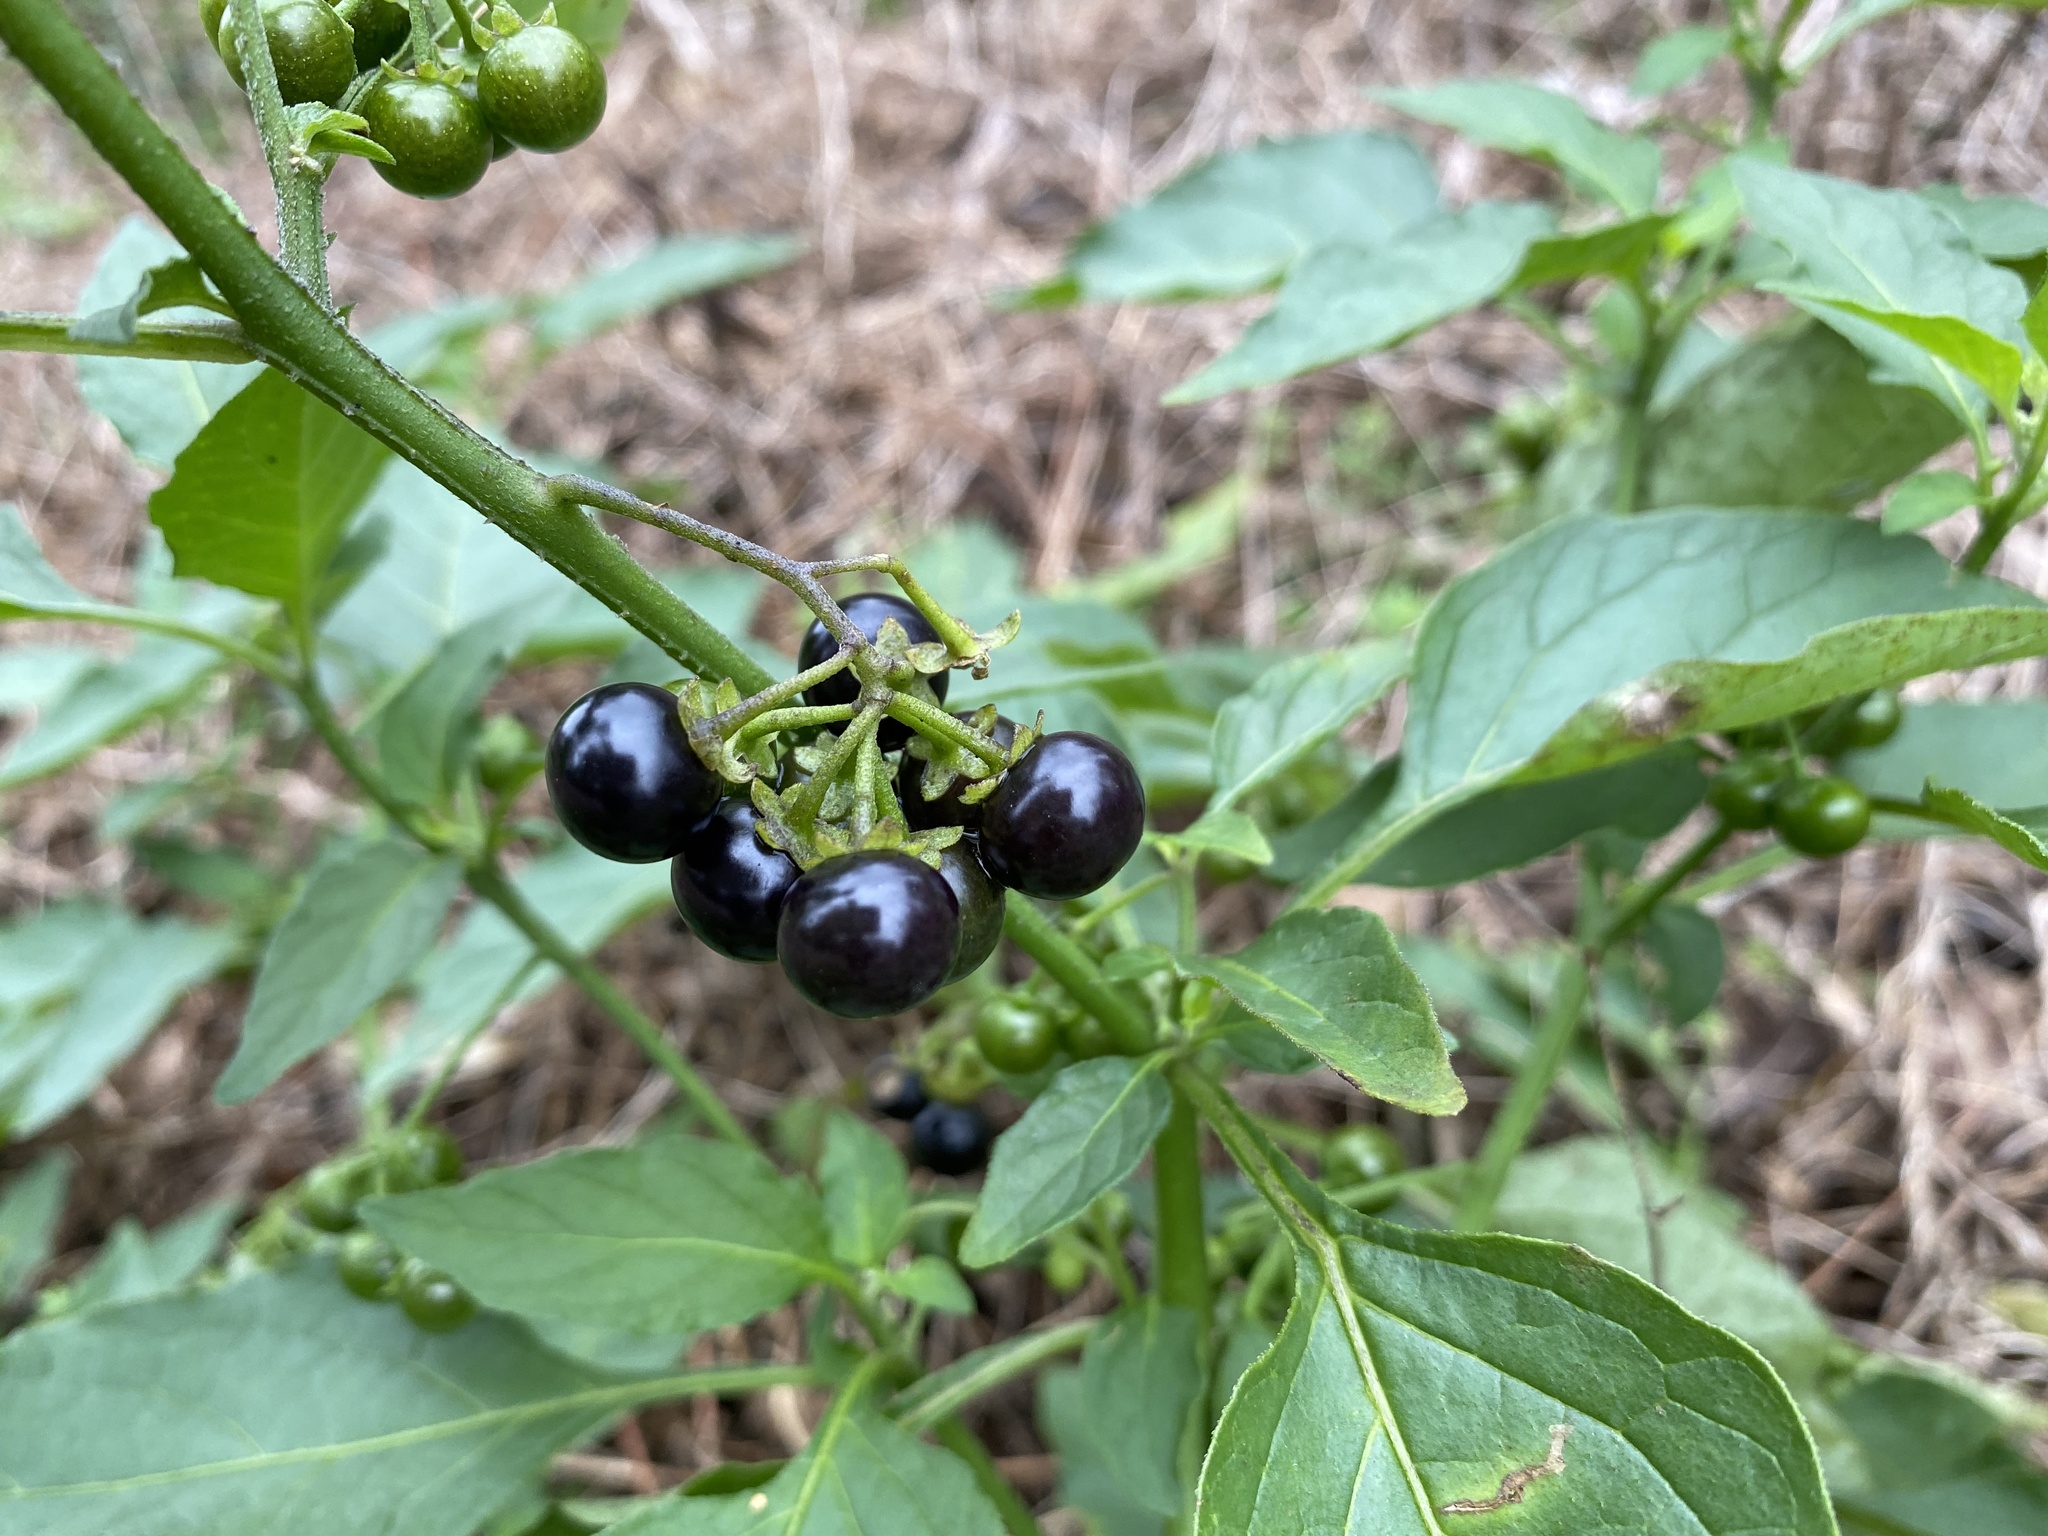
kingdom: Plantae
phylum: Tracheophyta
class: Magnoliopsida
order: Solanales
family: Solanaceae
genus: Solanum
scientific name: Solanum americanum
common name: American black nightshade
